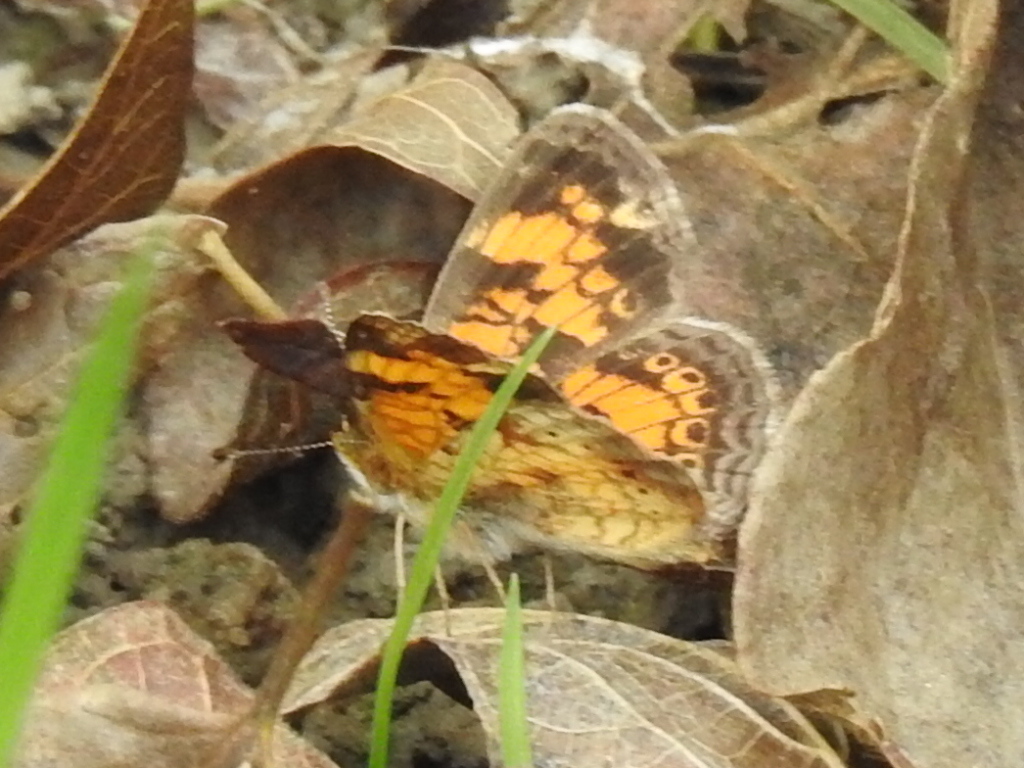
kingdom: Animalia
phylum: Arthropoda
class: Insecta
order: Lepidoptera
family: Nymphalidae
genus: Phyciodes
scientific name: Phyciodes tharos
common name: Pearl crescent
